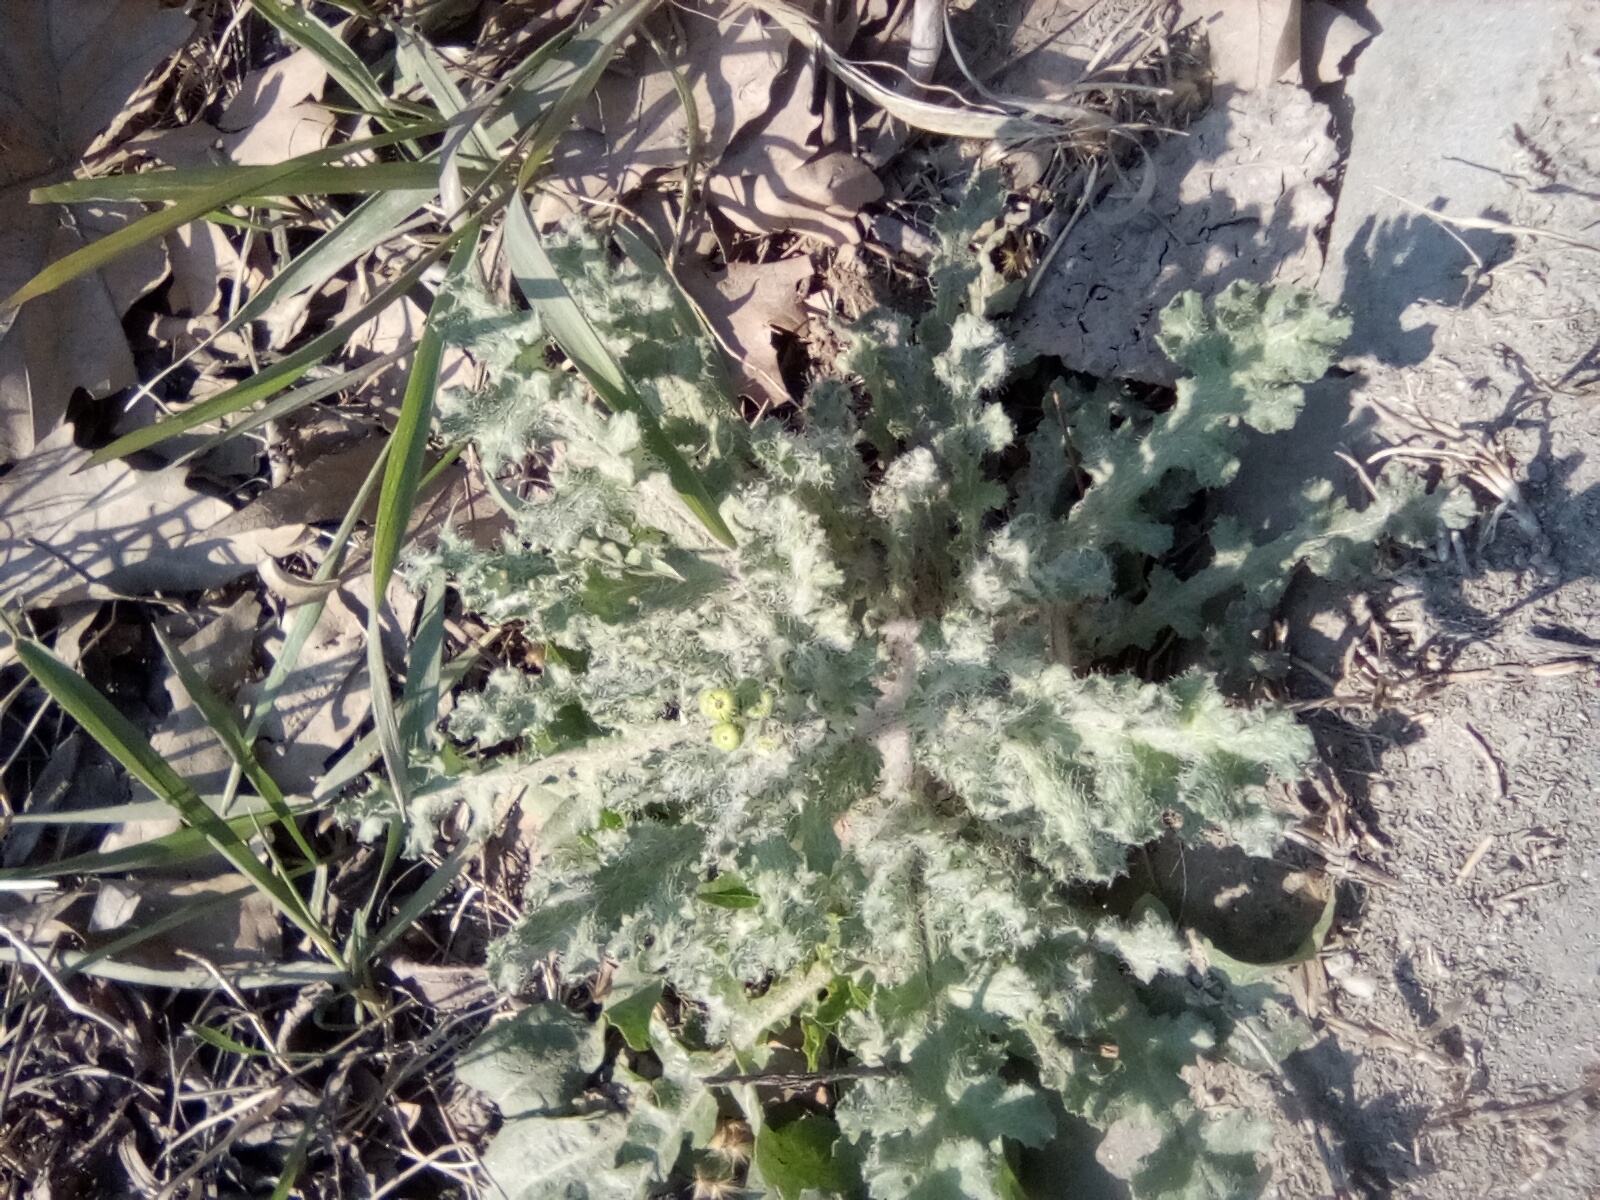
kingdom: Plantae
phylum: Tracheophyta
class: Magnoliopsida
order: Asterales
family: Asteraceae
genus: Senecio
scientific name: Senecio vernalis
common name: Eastern groundsel
